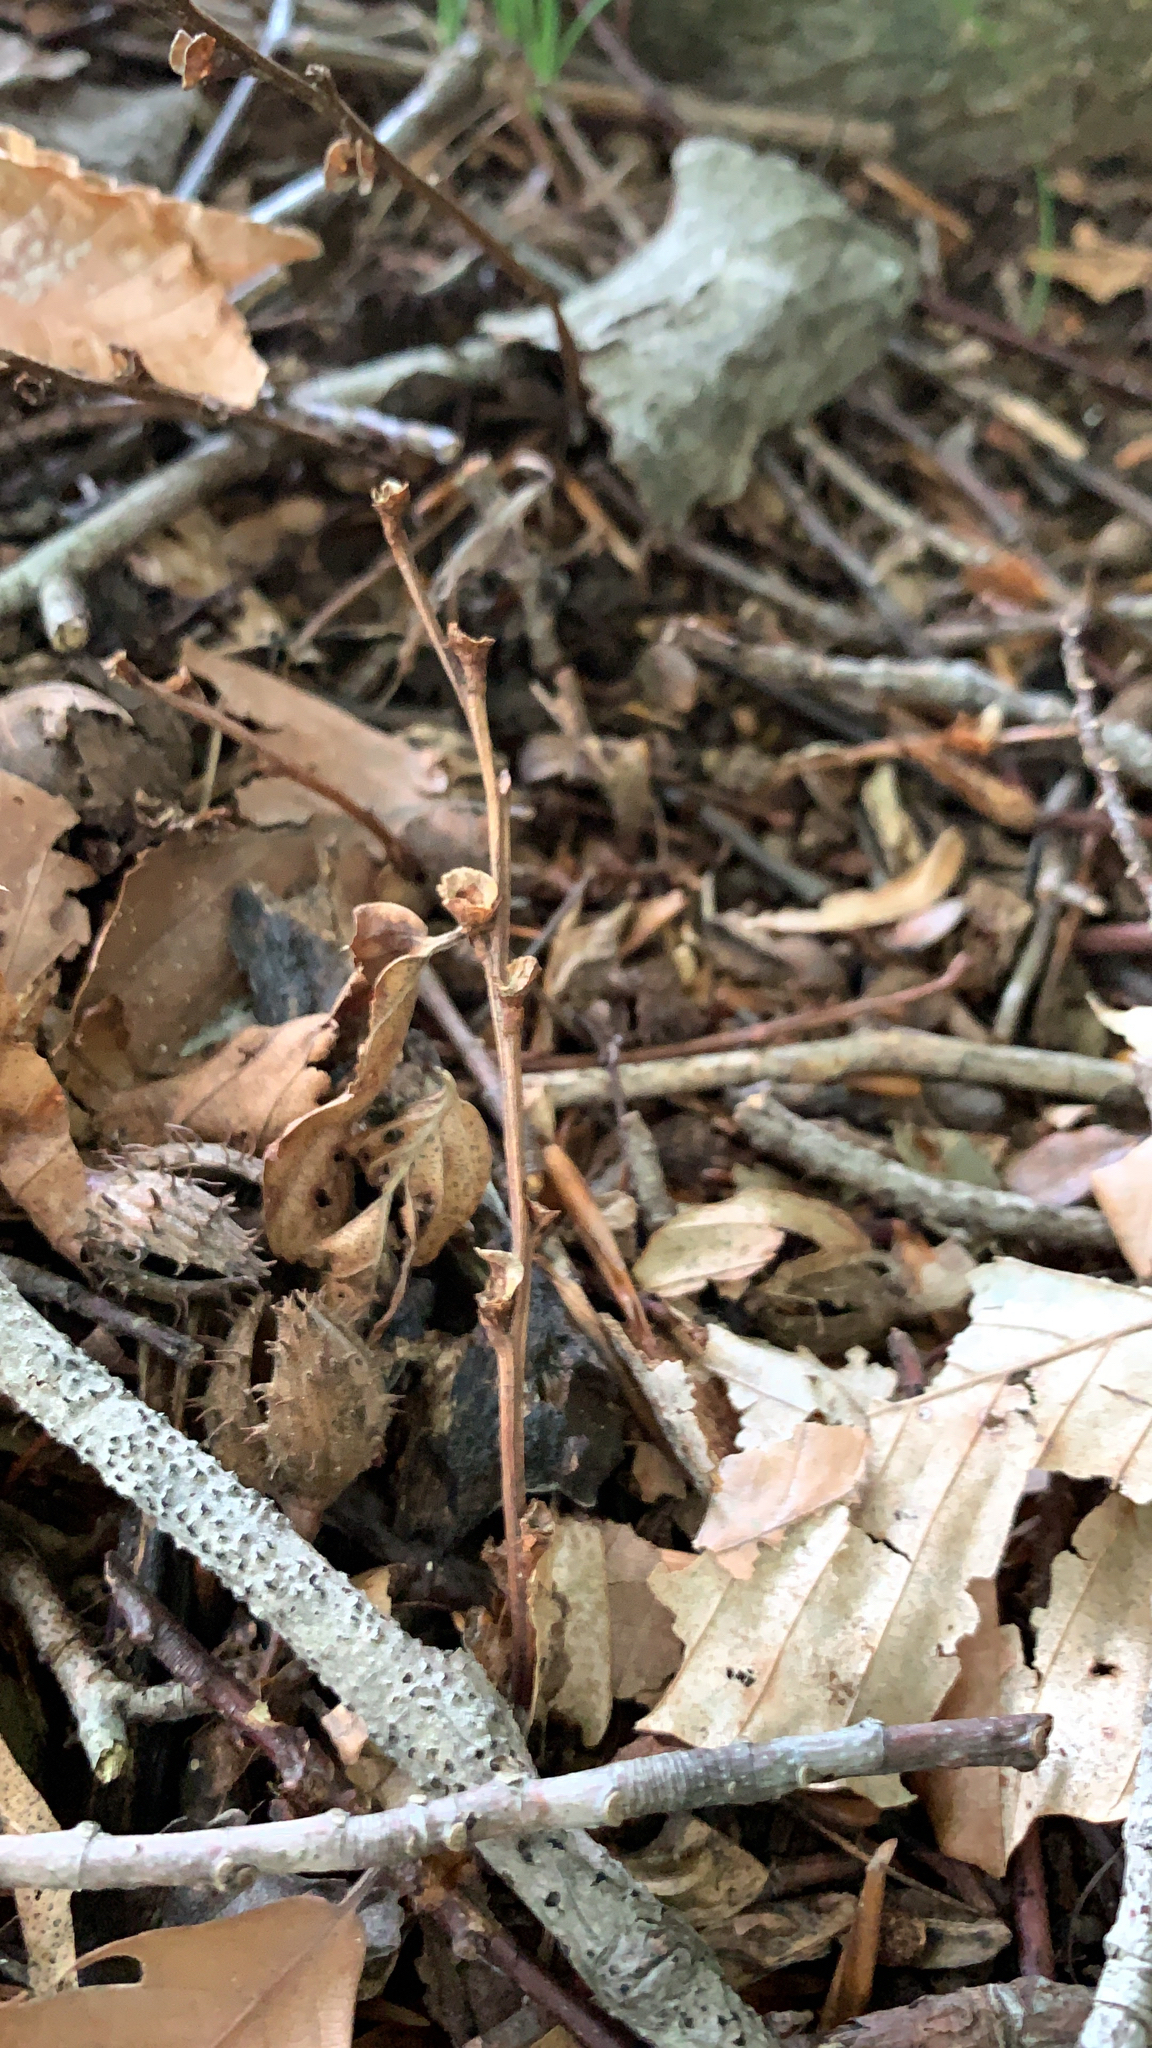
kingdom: Plantae
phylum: Tracheophyta
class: Magnoliopsida
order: Lamiales
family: Orobanchaceae
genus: Epifagus
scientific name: Epifagus virginiana
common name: Beechdrops
